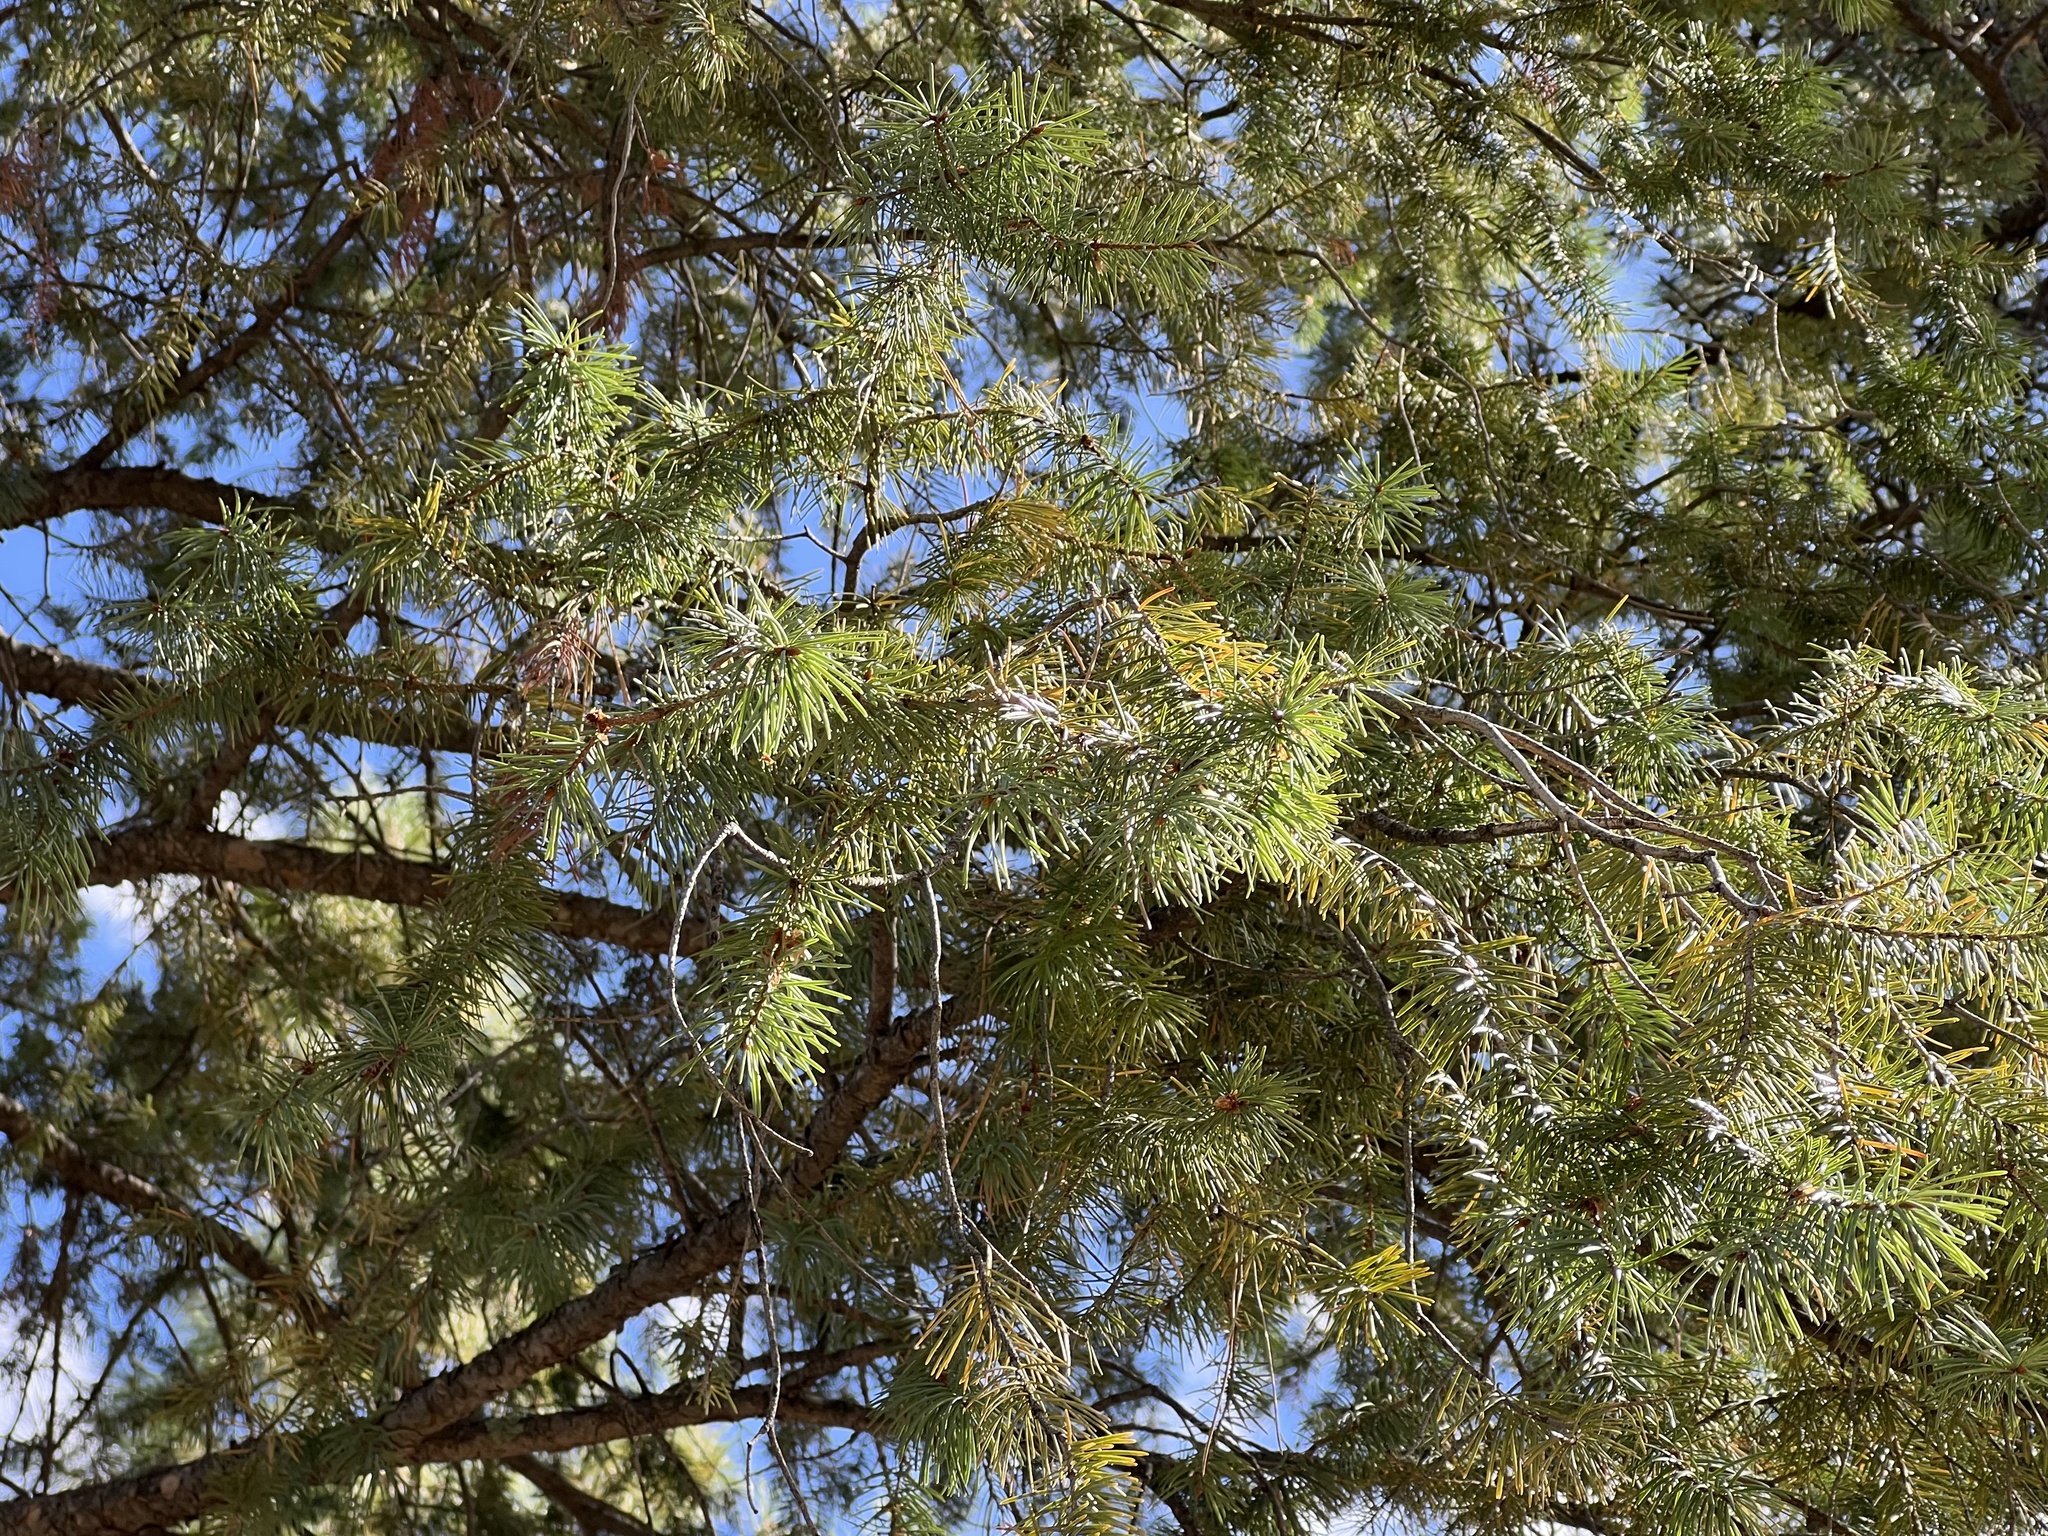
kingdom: Plantae
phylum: Tracheophyta
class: Pinopsida
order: Pinales
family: Pinaceae
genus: Pseudotsuga
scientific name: Pseudotsuga menziesii
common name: Douglas fir
